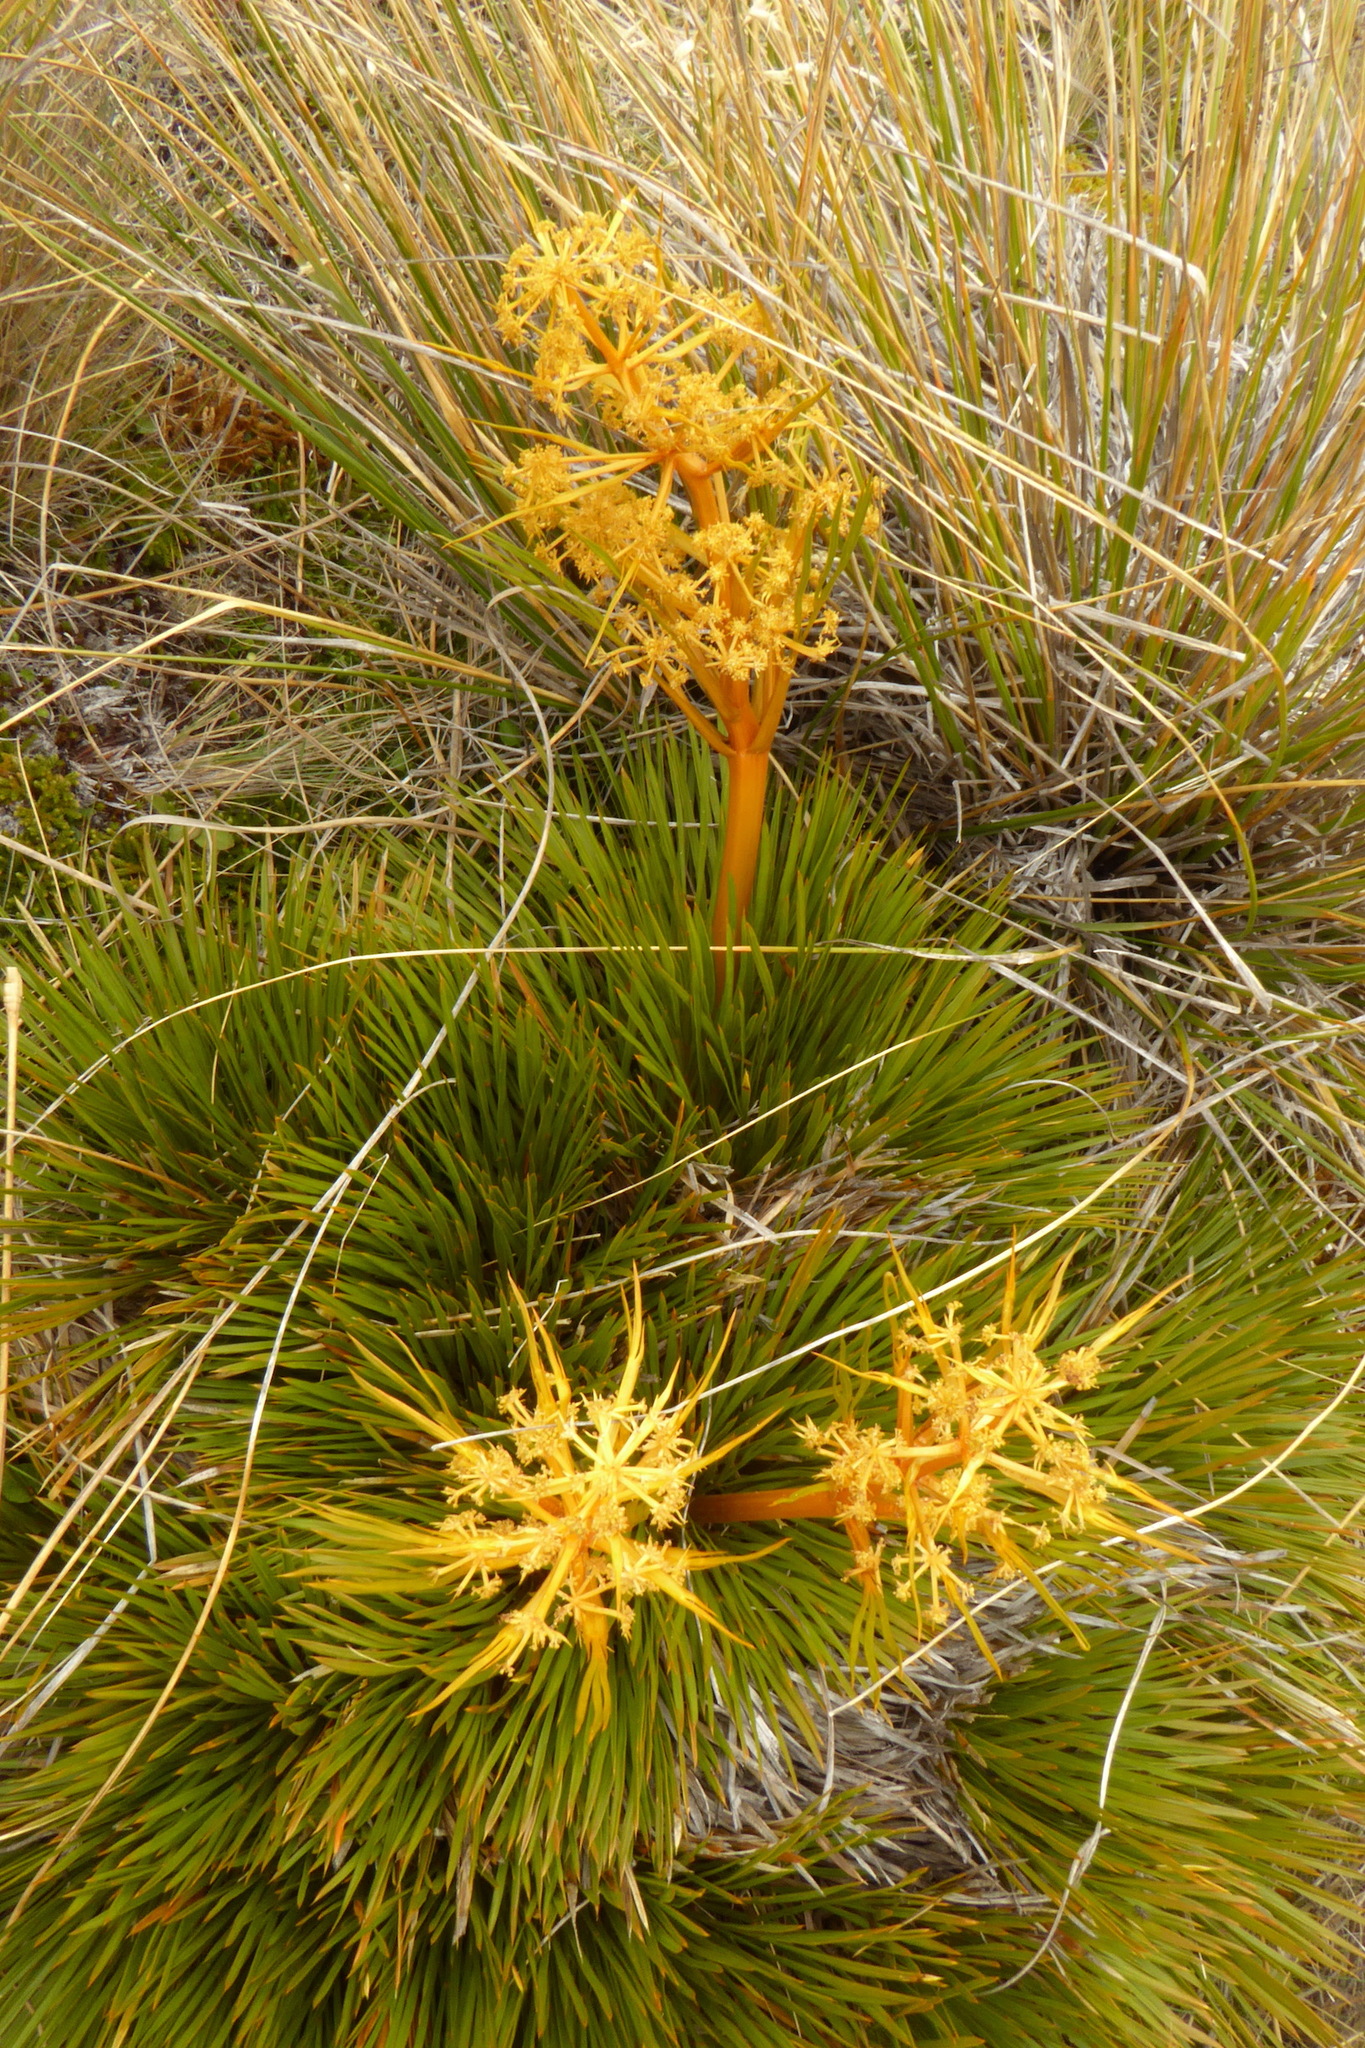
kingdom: Plantae
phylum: Tracheophyta
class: Magnoliopsida
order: Apiales
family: Apiaceae
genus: Aciphylla
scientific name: Aciphylla montana
